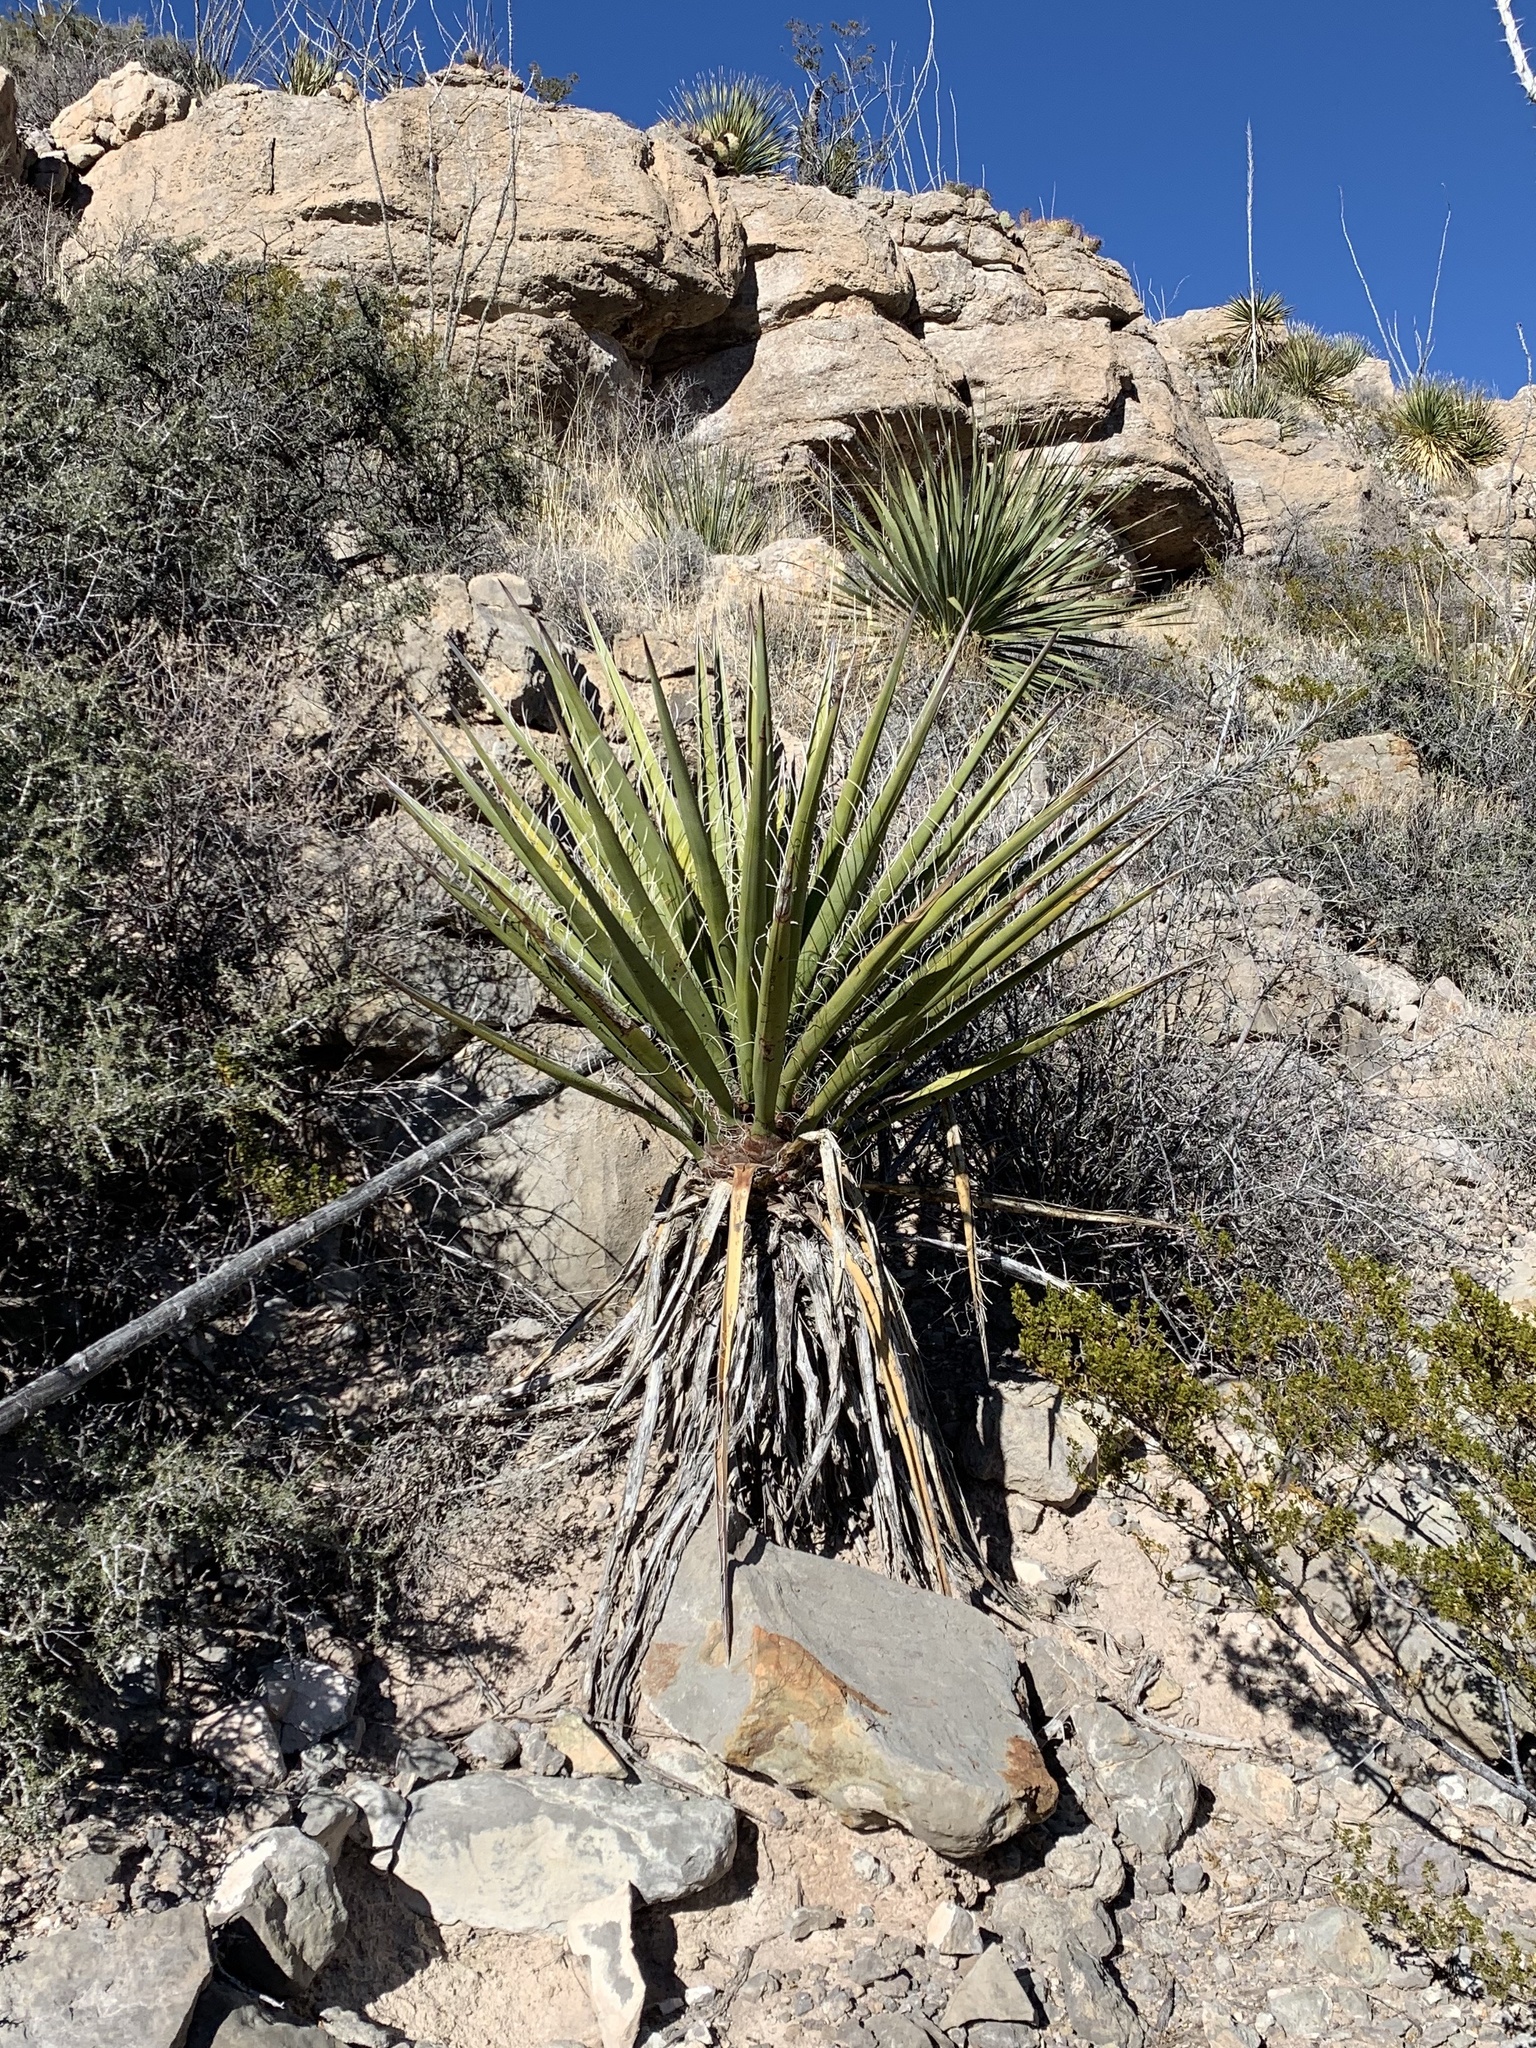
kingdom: Plantae
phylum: Tracheophyta
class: Liliopsida
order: Asparagales
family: Asparagaceae
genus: Yucca
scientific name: Yucca treculiana
